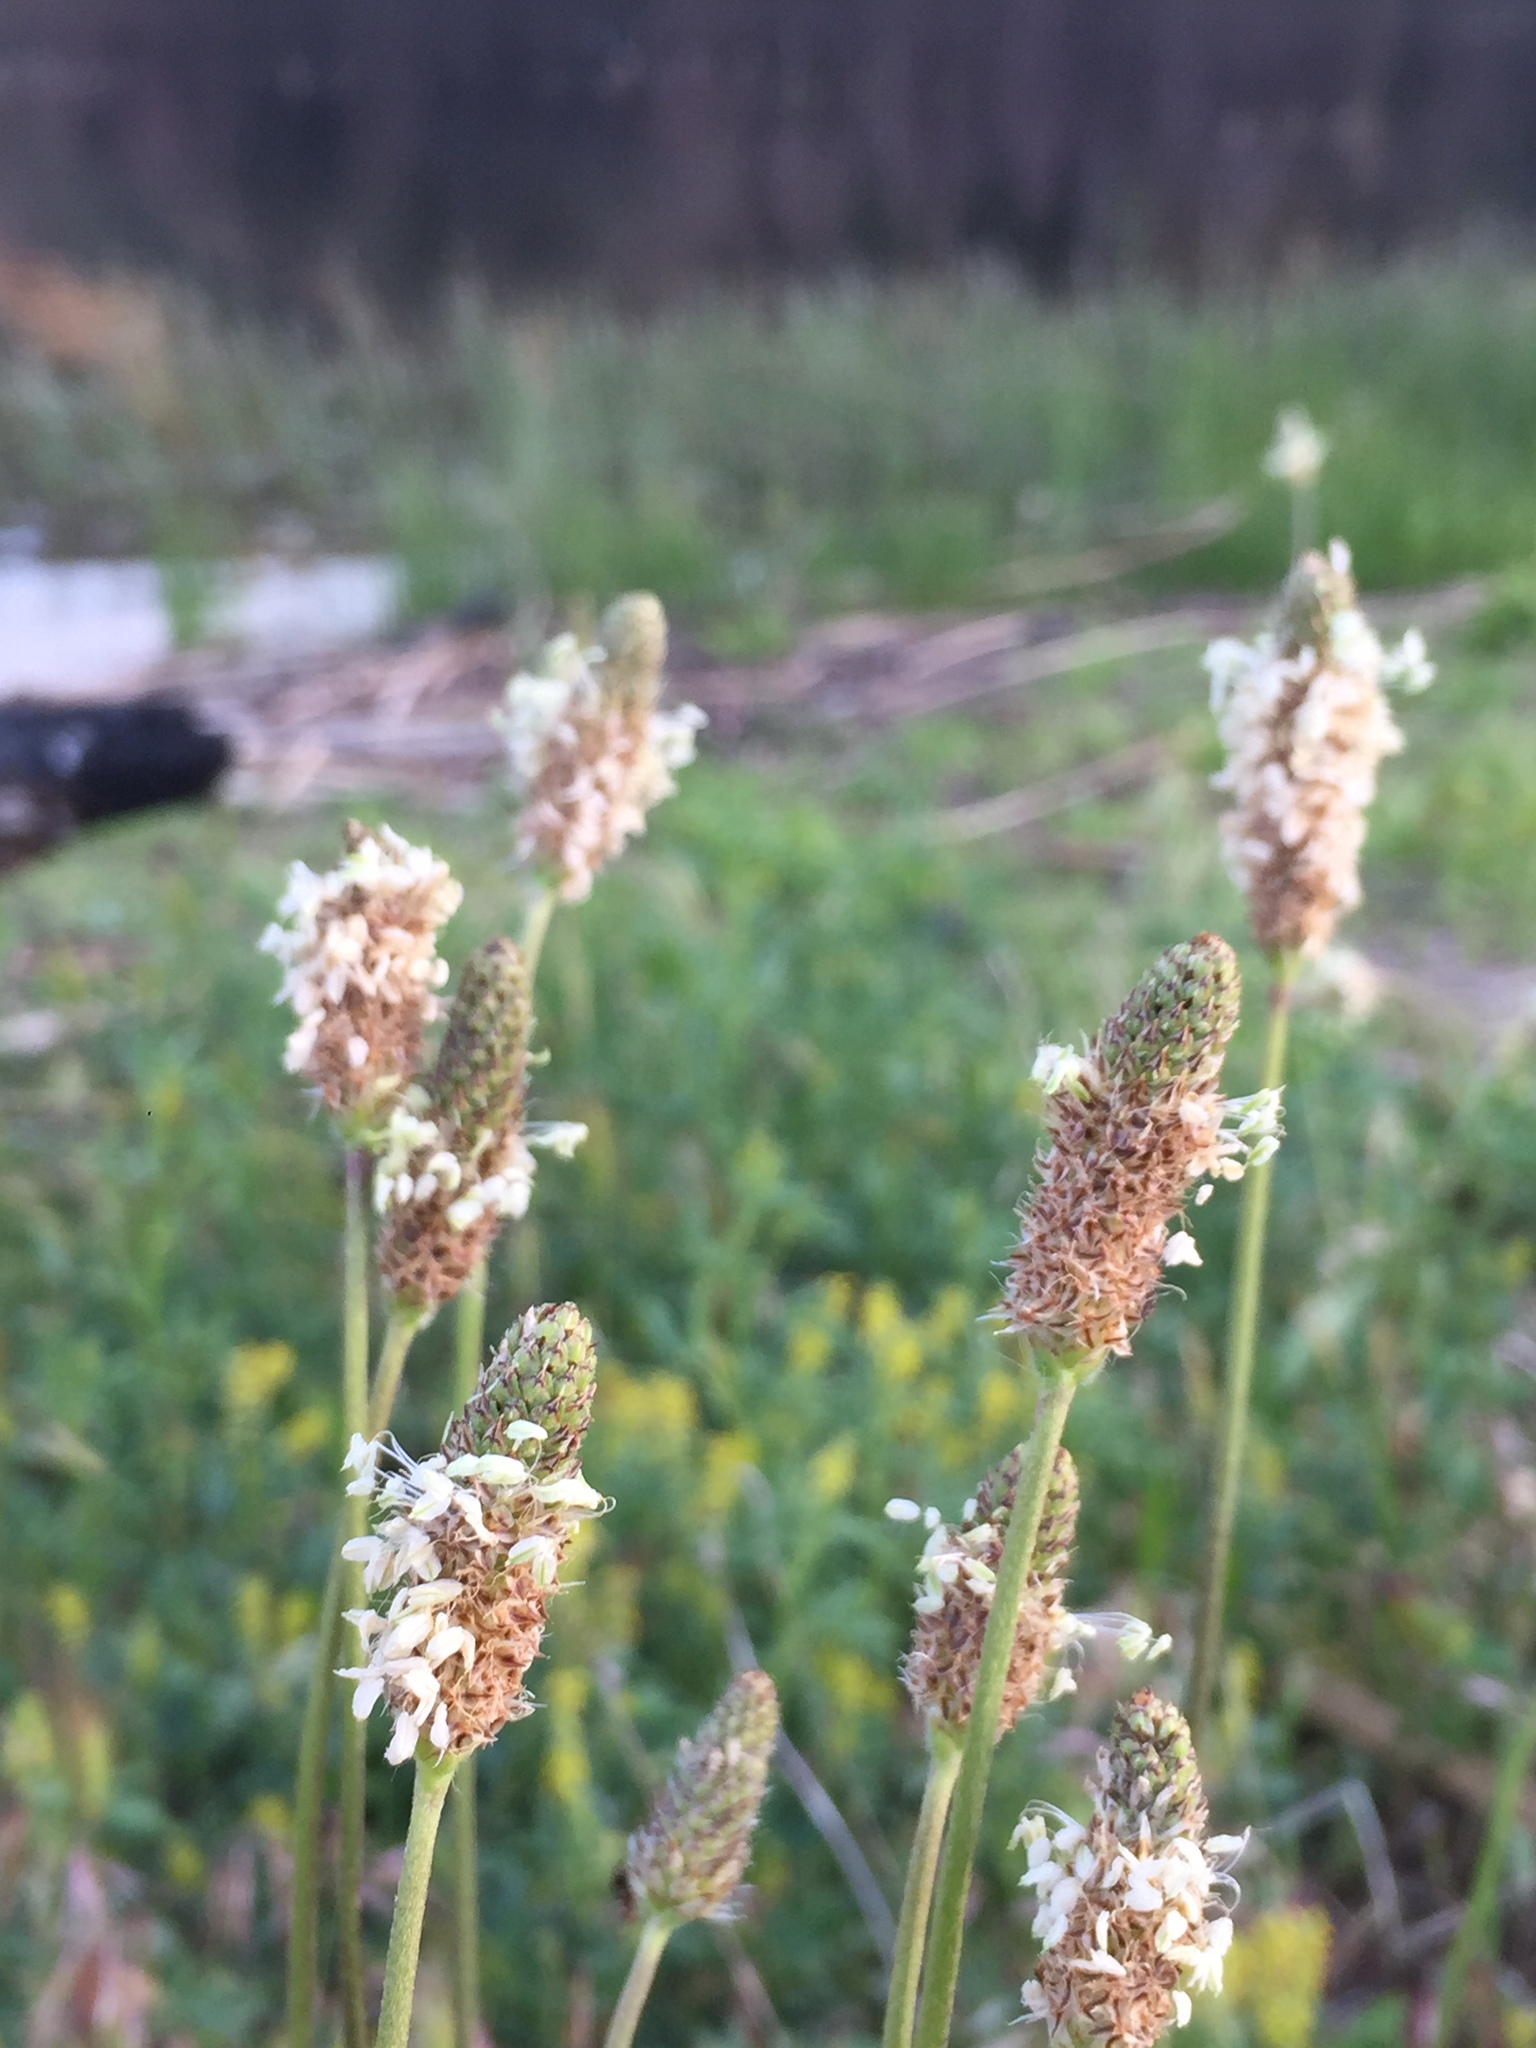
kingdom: Plantae
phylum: Tracheophyta
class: Magnoliopsida
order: Lamiales
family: Plantaginaceae
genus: Plantago
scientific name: Plantago lanceolata
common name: Ribwort plantain
